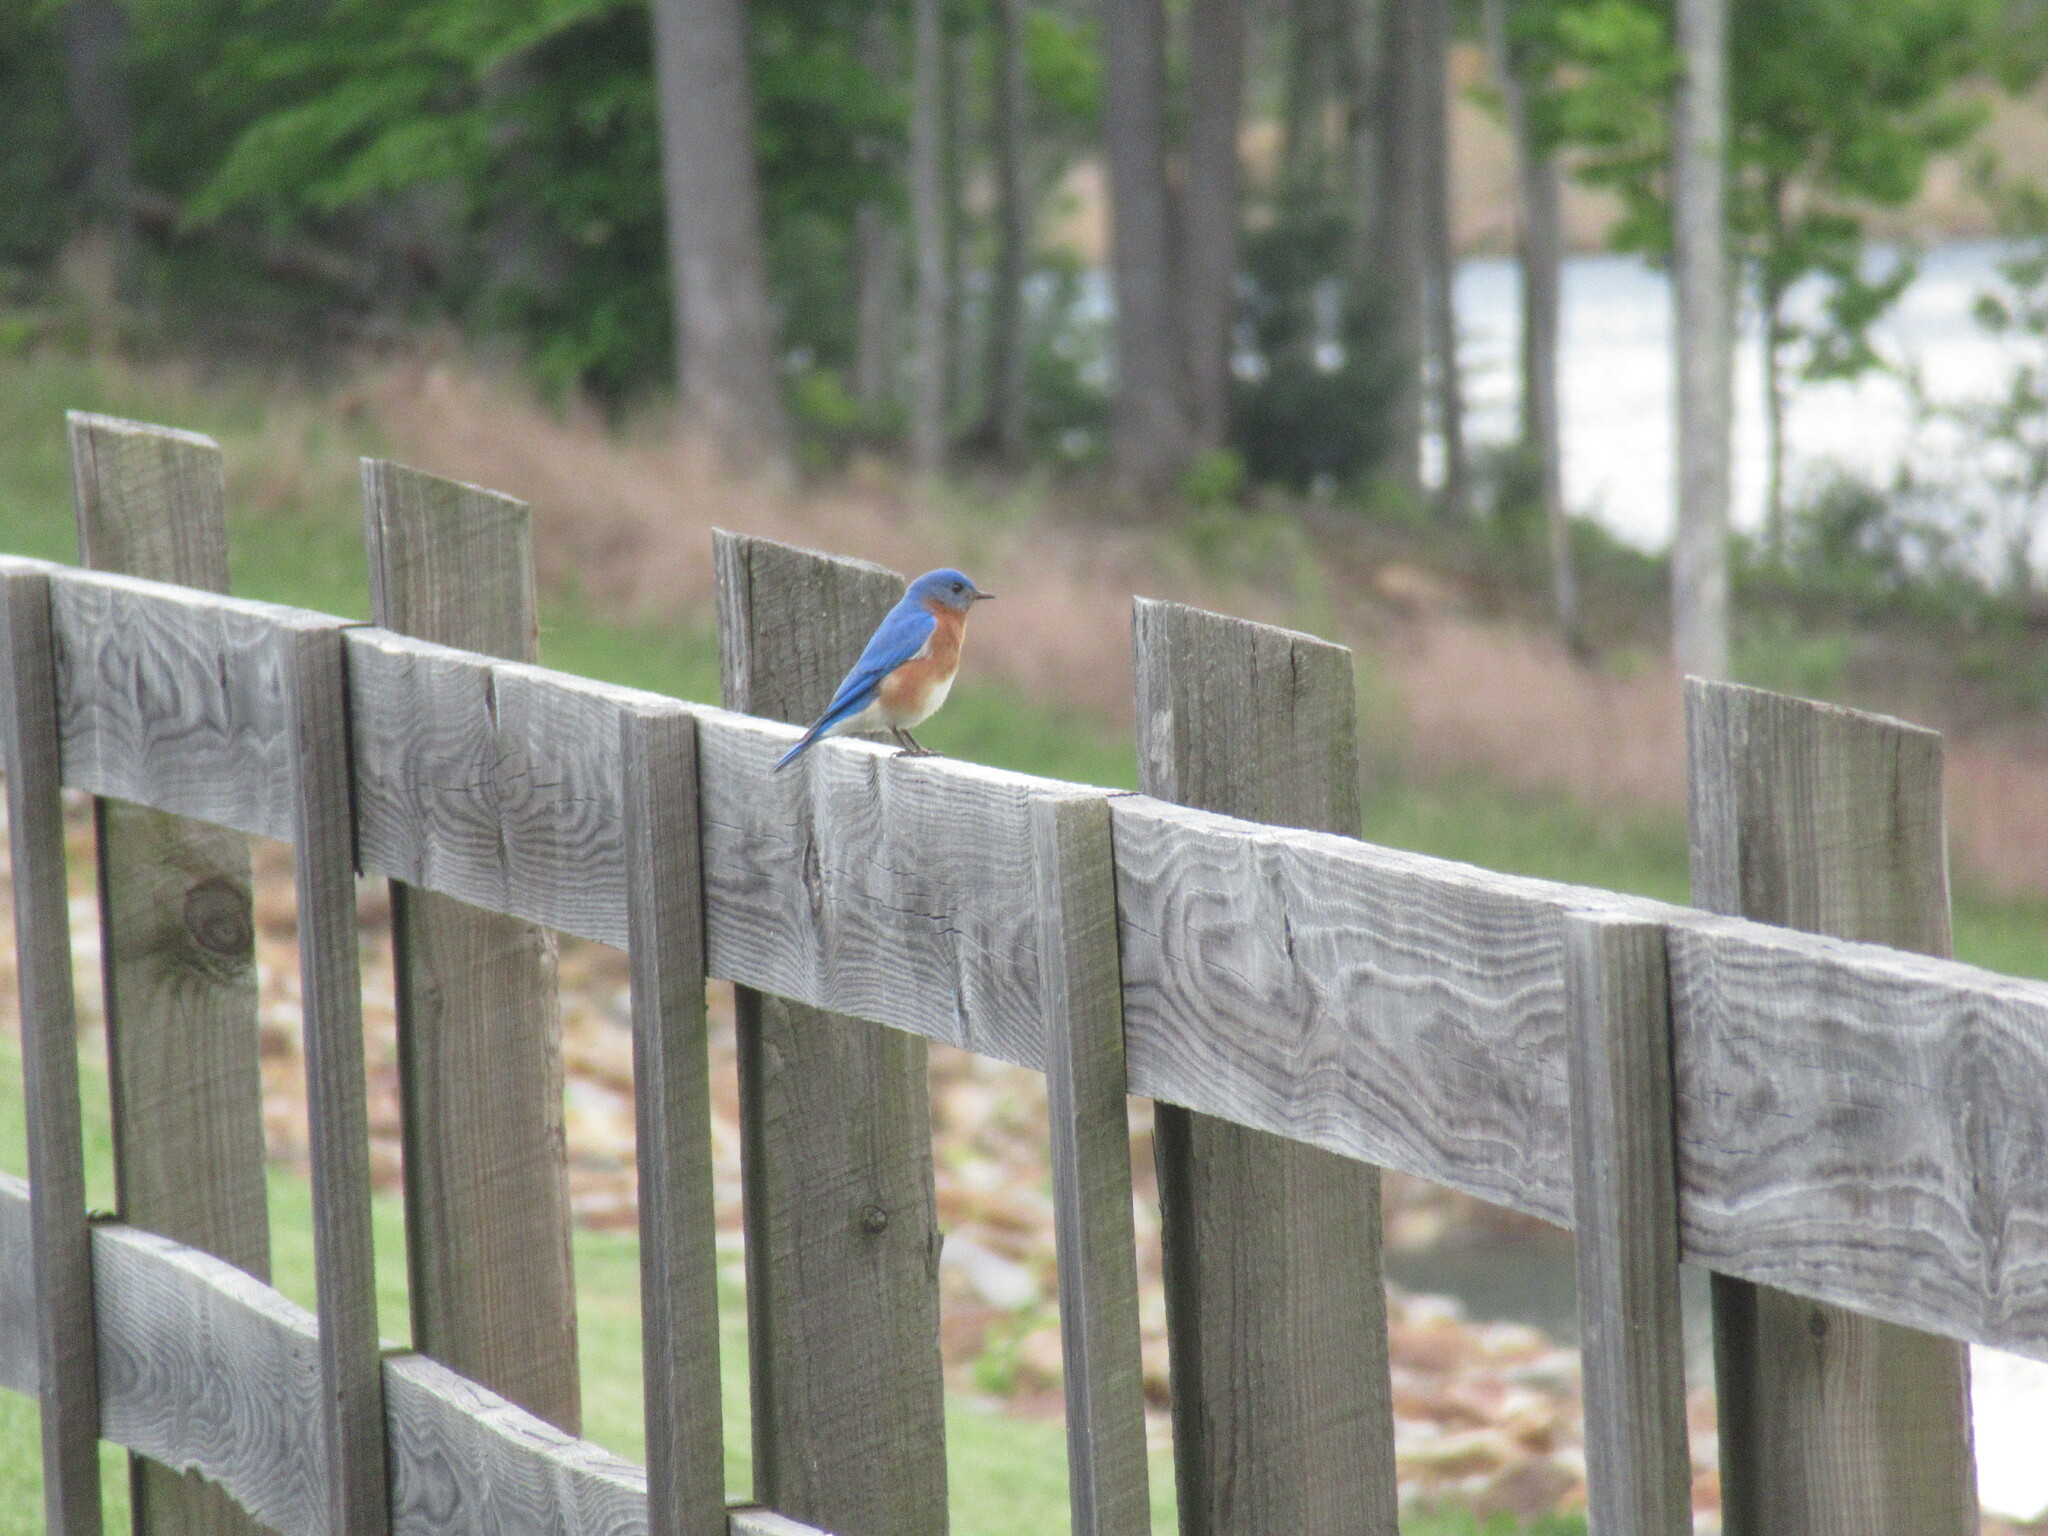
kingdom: Animalia
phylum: Chordata
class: Aves
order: Passeriformes
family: Turdidae
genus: Sialia
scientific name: Sialia sialis
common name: Eastern bluebird
